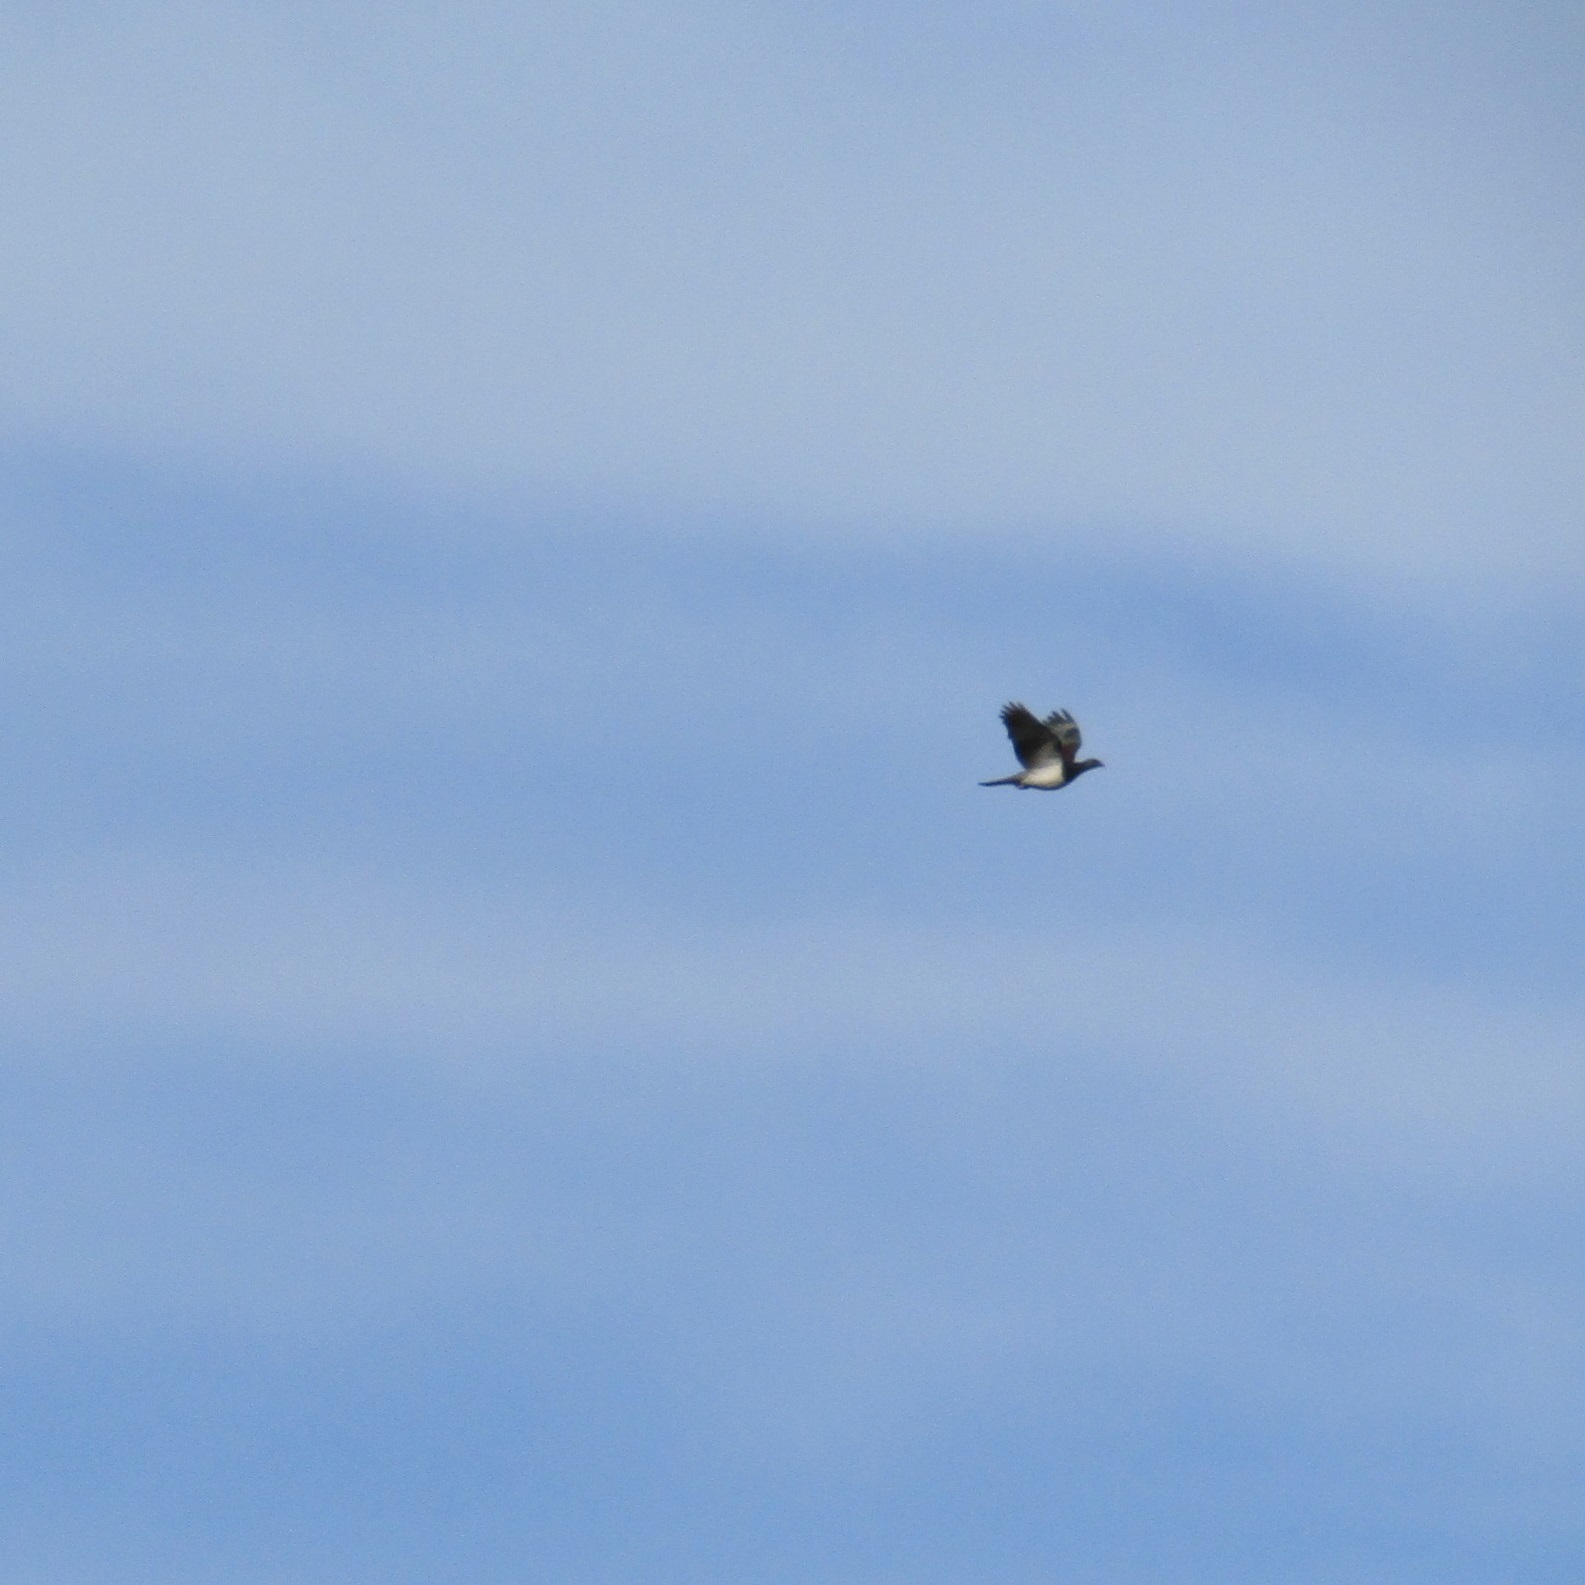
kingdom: Animalia
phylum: Chordata
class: Aves
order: Columbiformes
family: Columbidae
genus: Hemiphaga
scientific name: Hemiphaga novaeseelandiae
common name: New zealand pigeon
